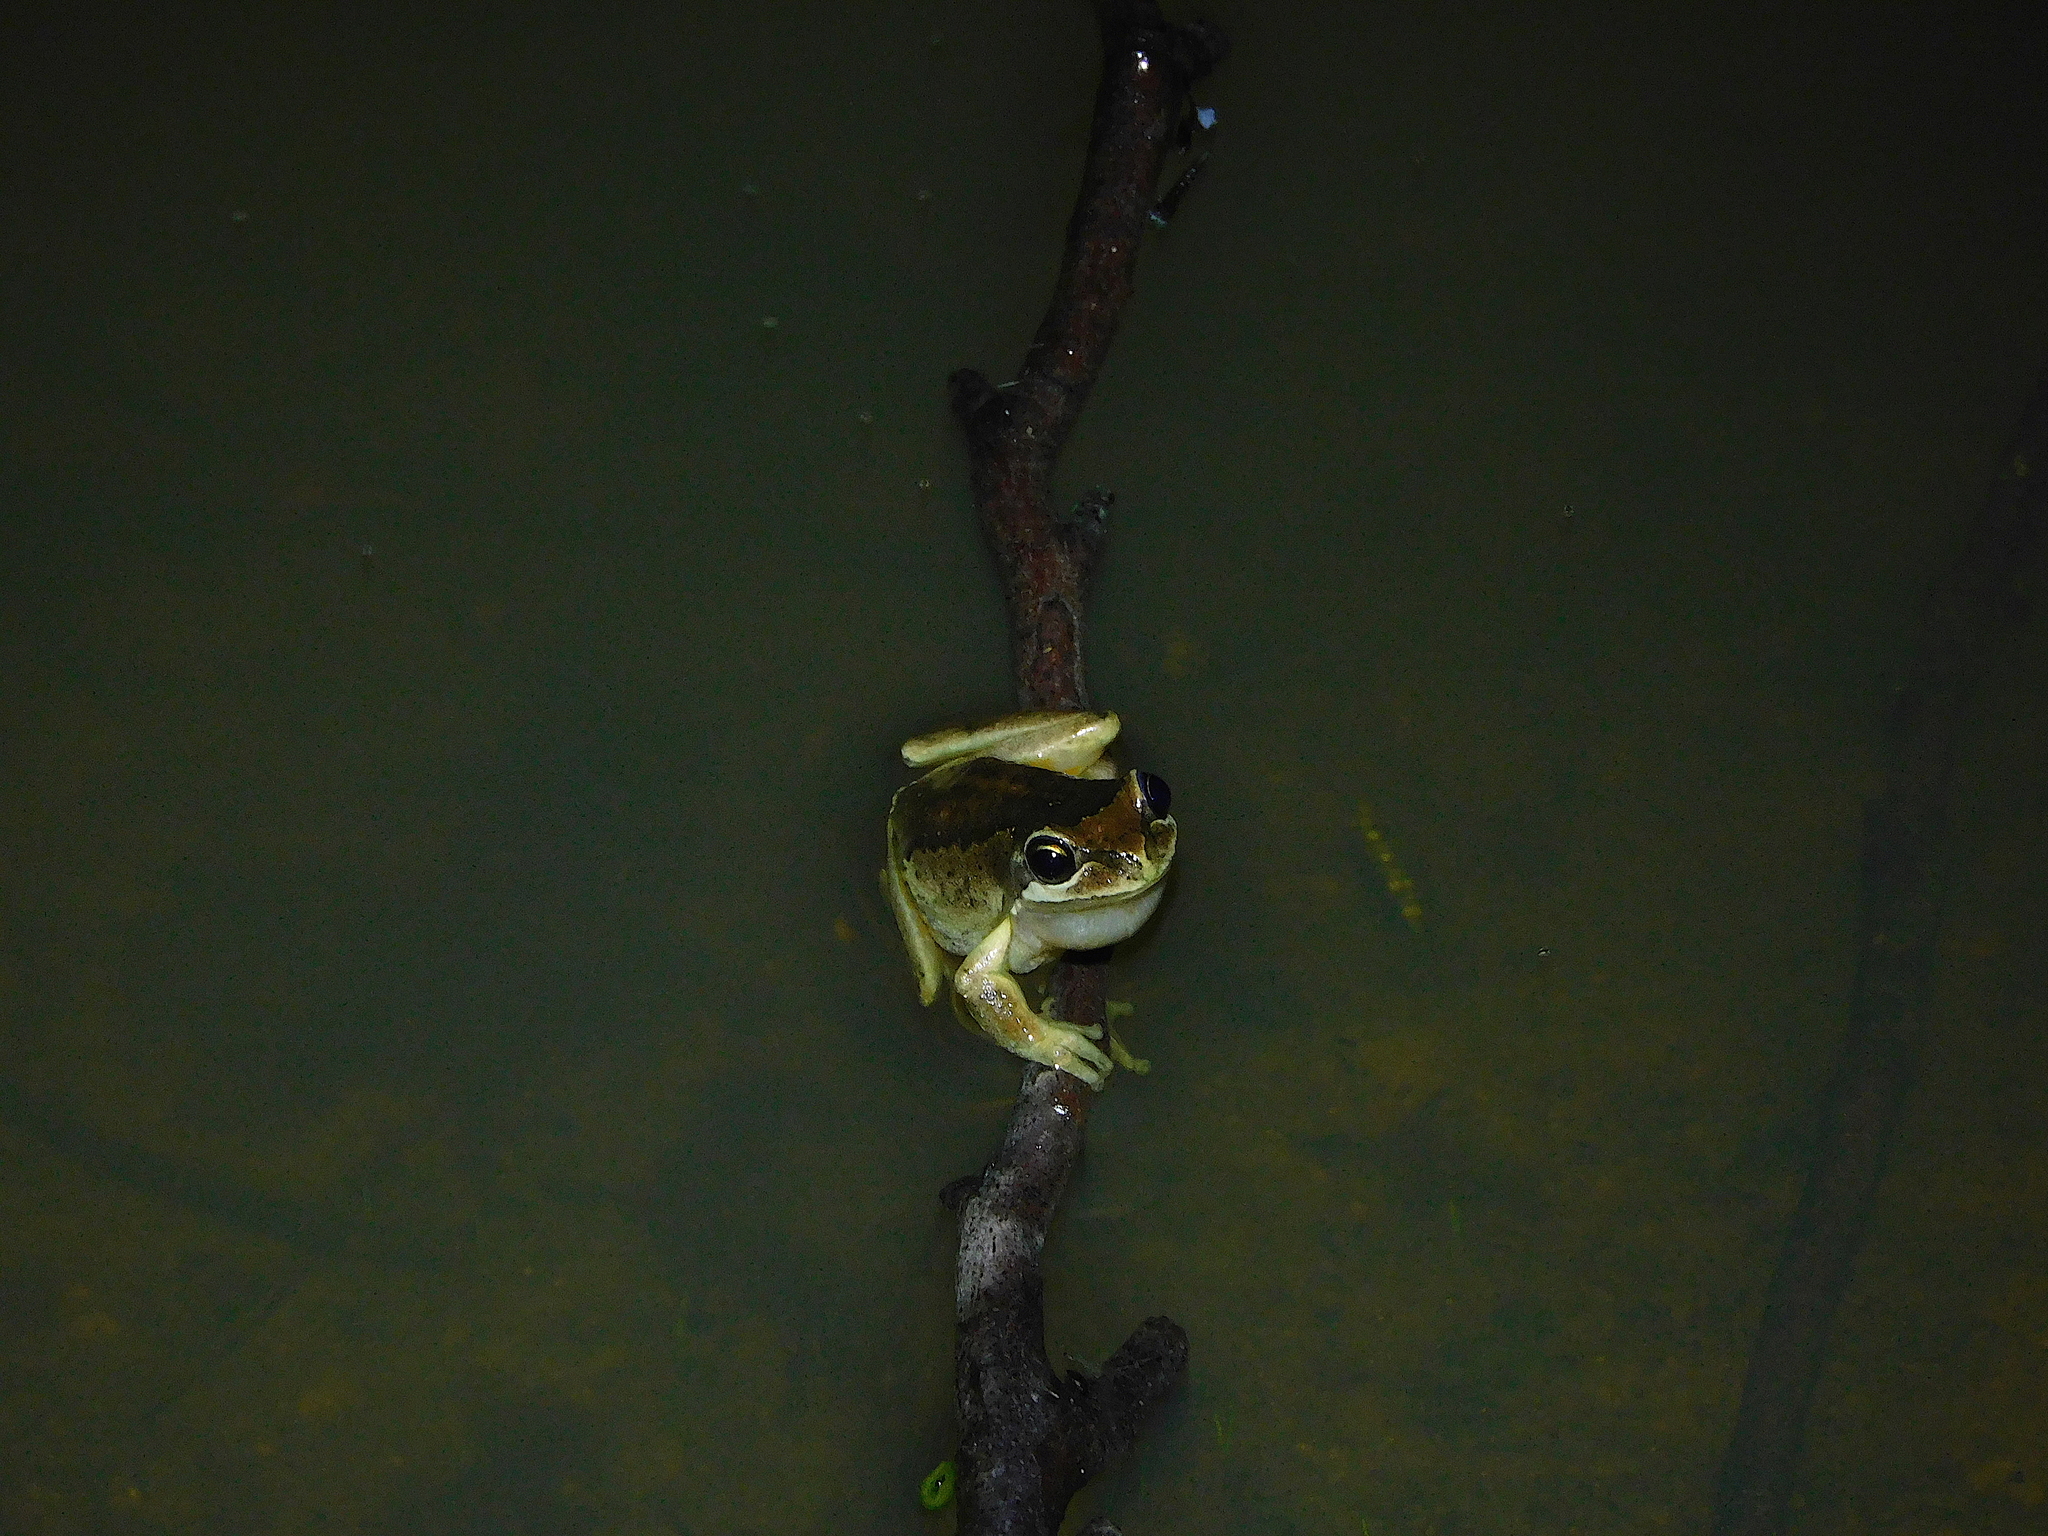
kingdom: Animalia
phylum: Chordata
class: Amphibia
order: Anura
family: Pelodryadidae
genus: Litoria
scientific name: Litoria ewingii
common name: Southern brown tree frog
